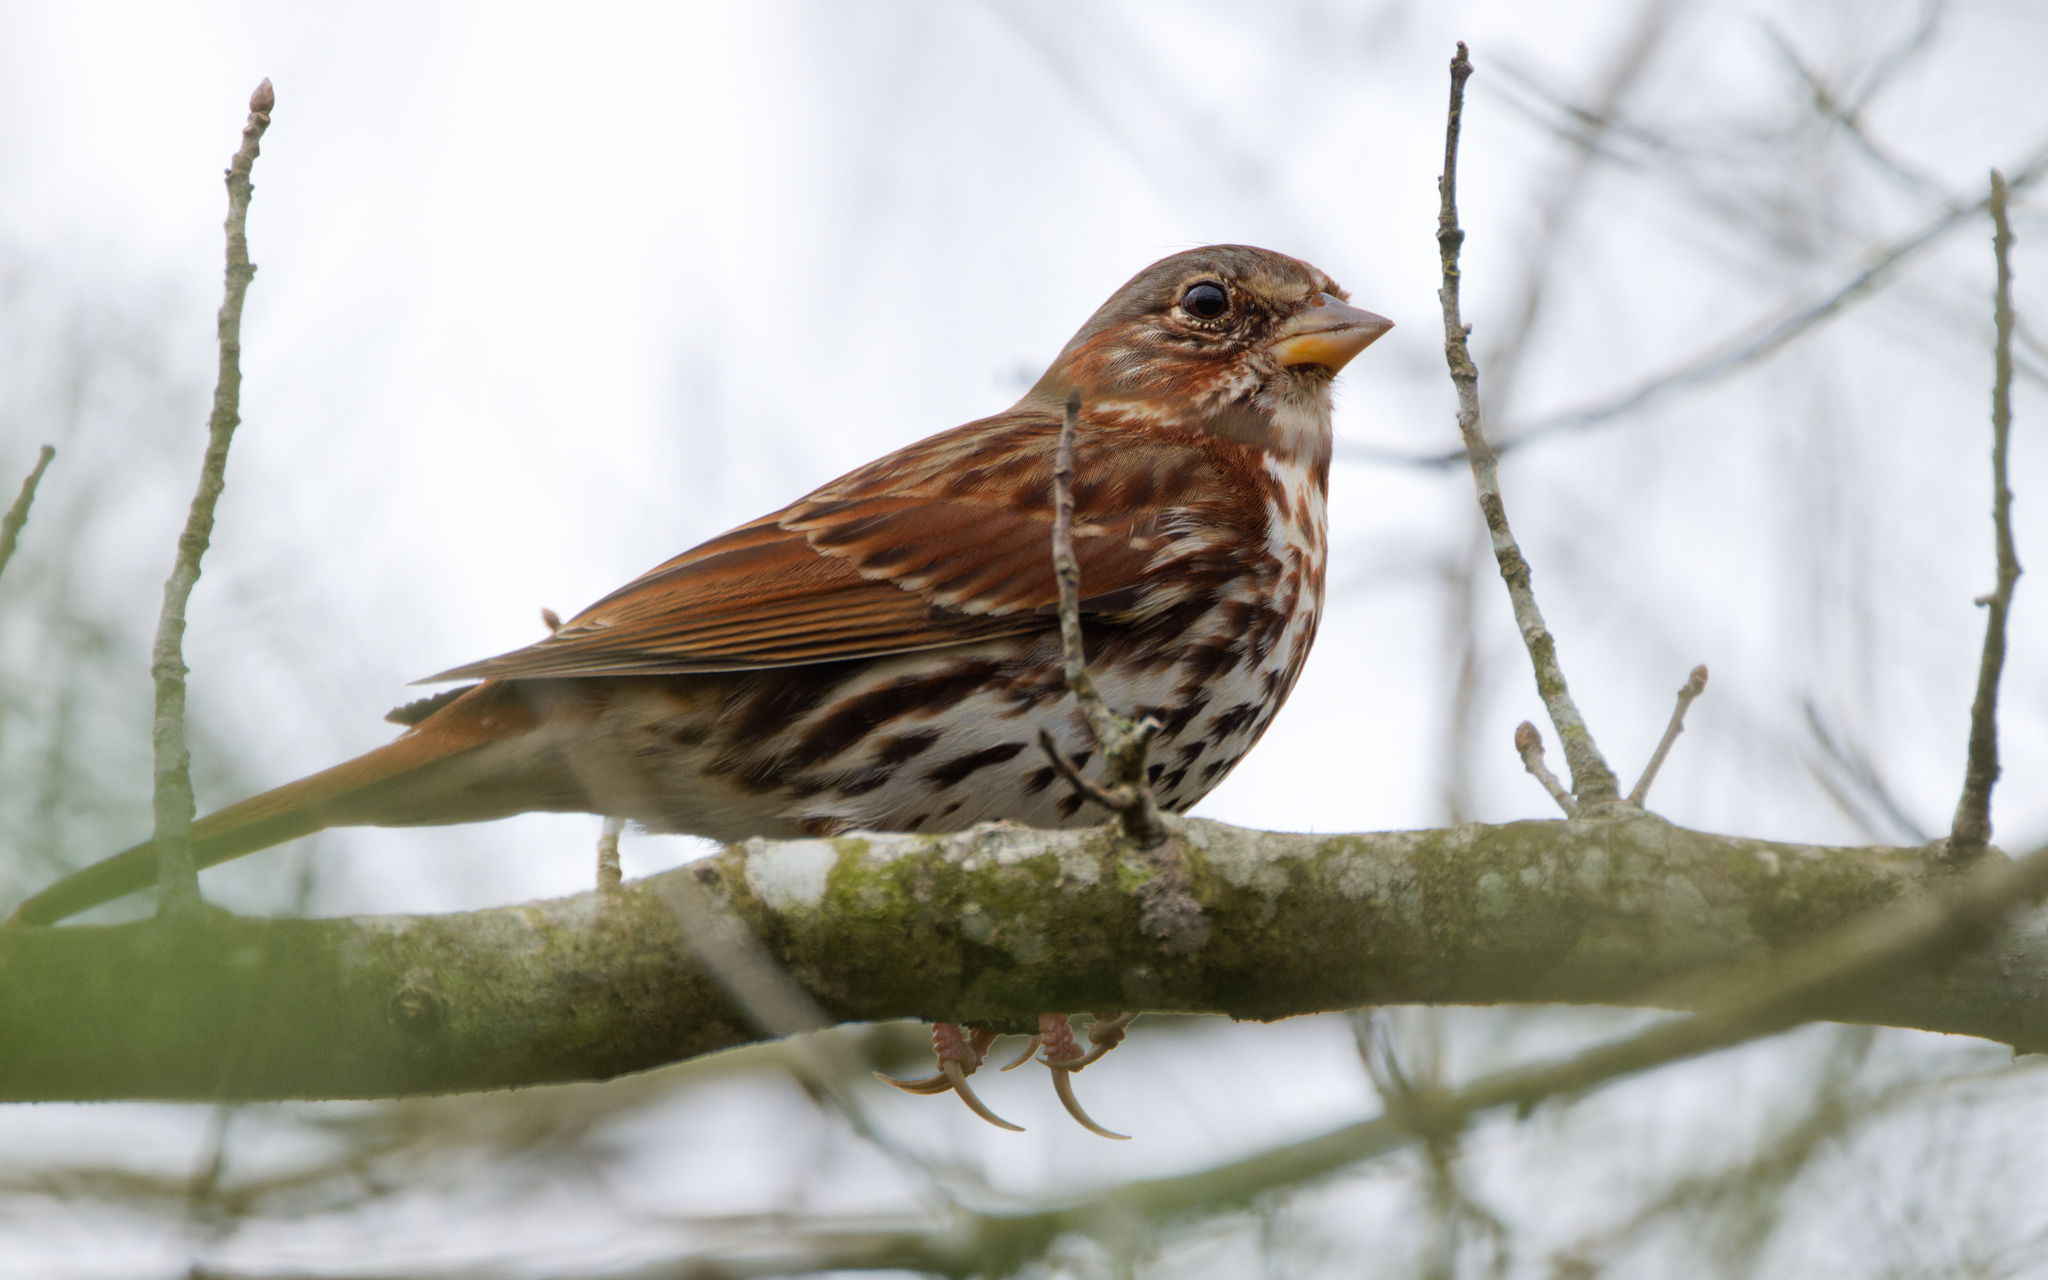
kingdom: Animalia
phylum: Chordata
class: Aves
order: Passeriformes
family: Passerellidae
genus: Passerella
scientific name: Passerella iliaca
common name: Fox sparrow
